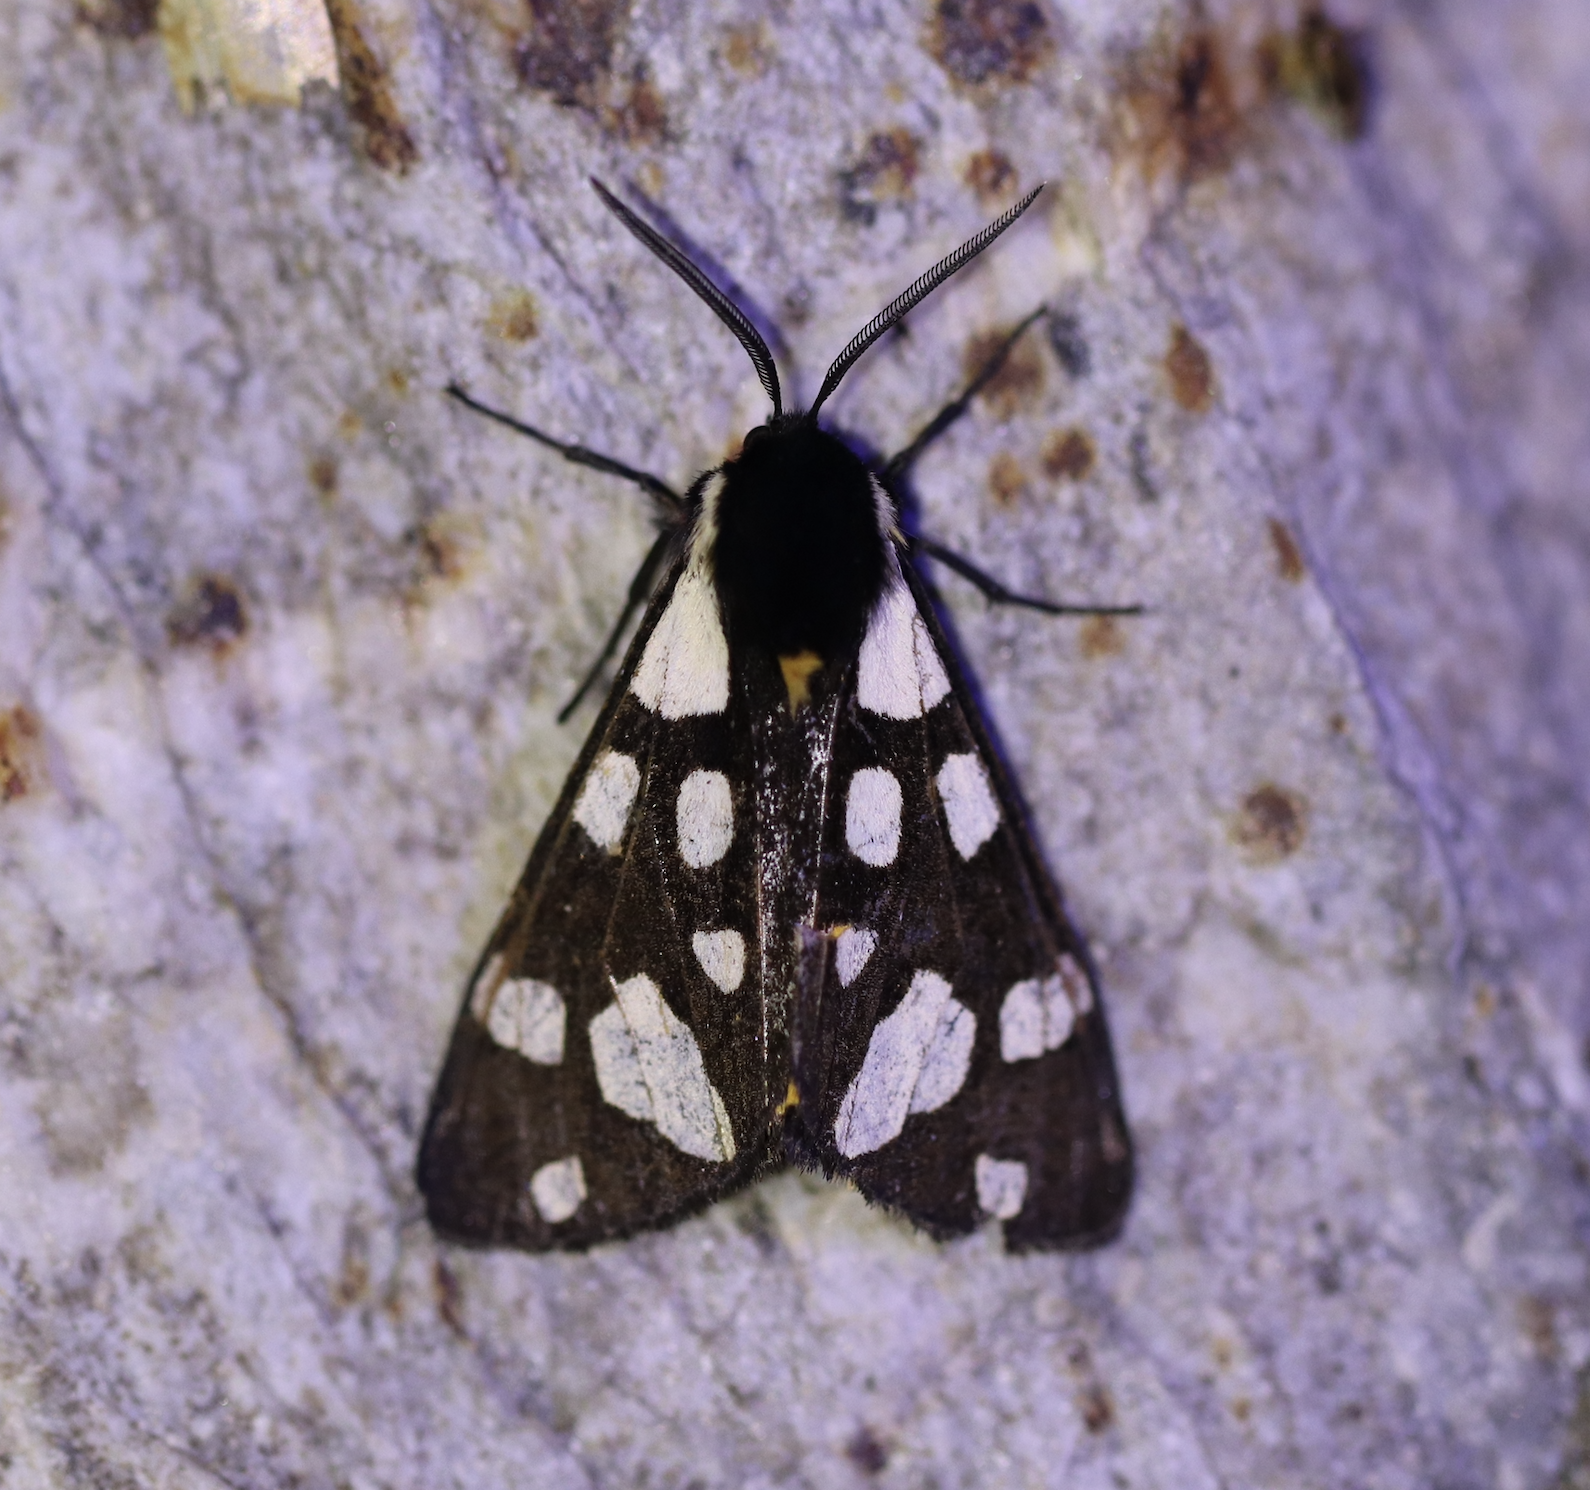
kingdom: Animalia
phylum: Arthropoda
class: Insecta
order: Lepidoptera
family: Erebidae
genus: Epicallia
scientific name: Epicallia villica
